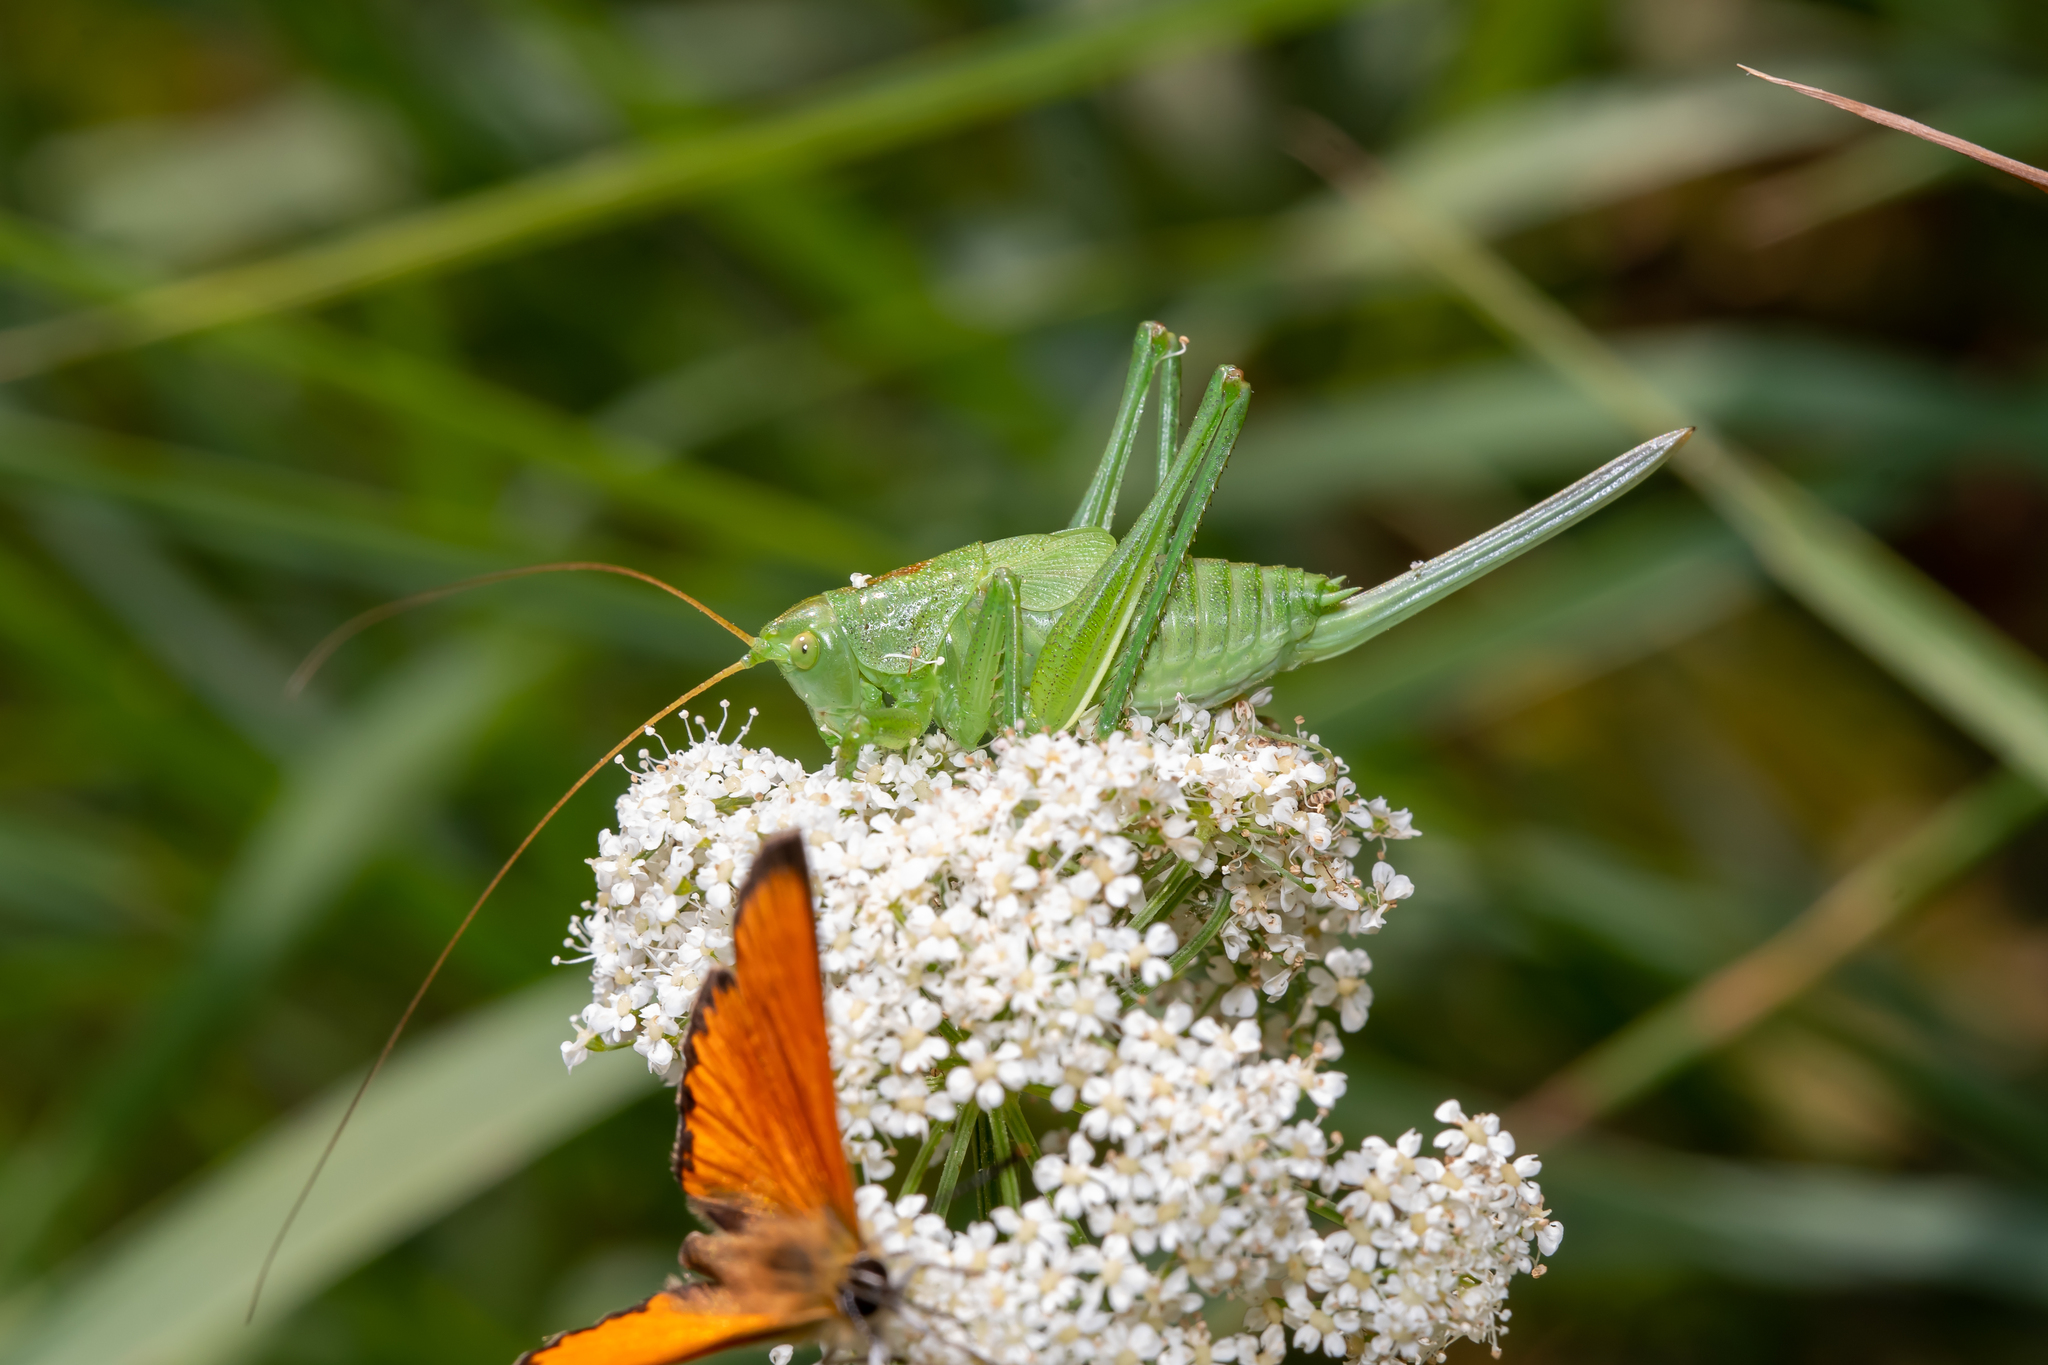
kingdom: Animalia
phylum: Arthropoda
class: Insecta
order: Orthoptera
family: Tettigoniidae
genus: Tettigonia
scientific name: Tettigonia cantans
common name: Upland green bush-cricket
